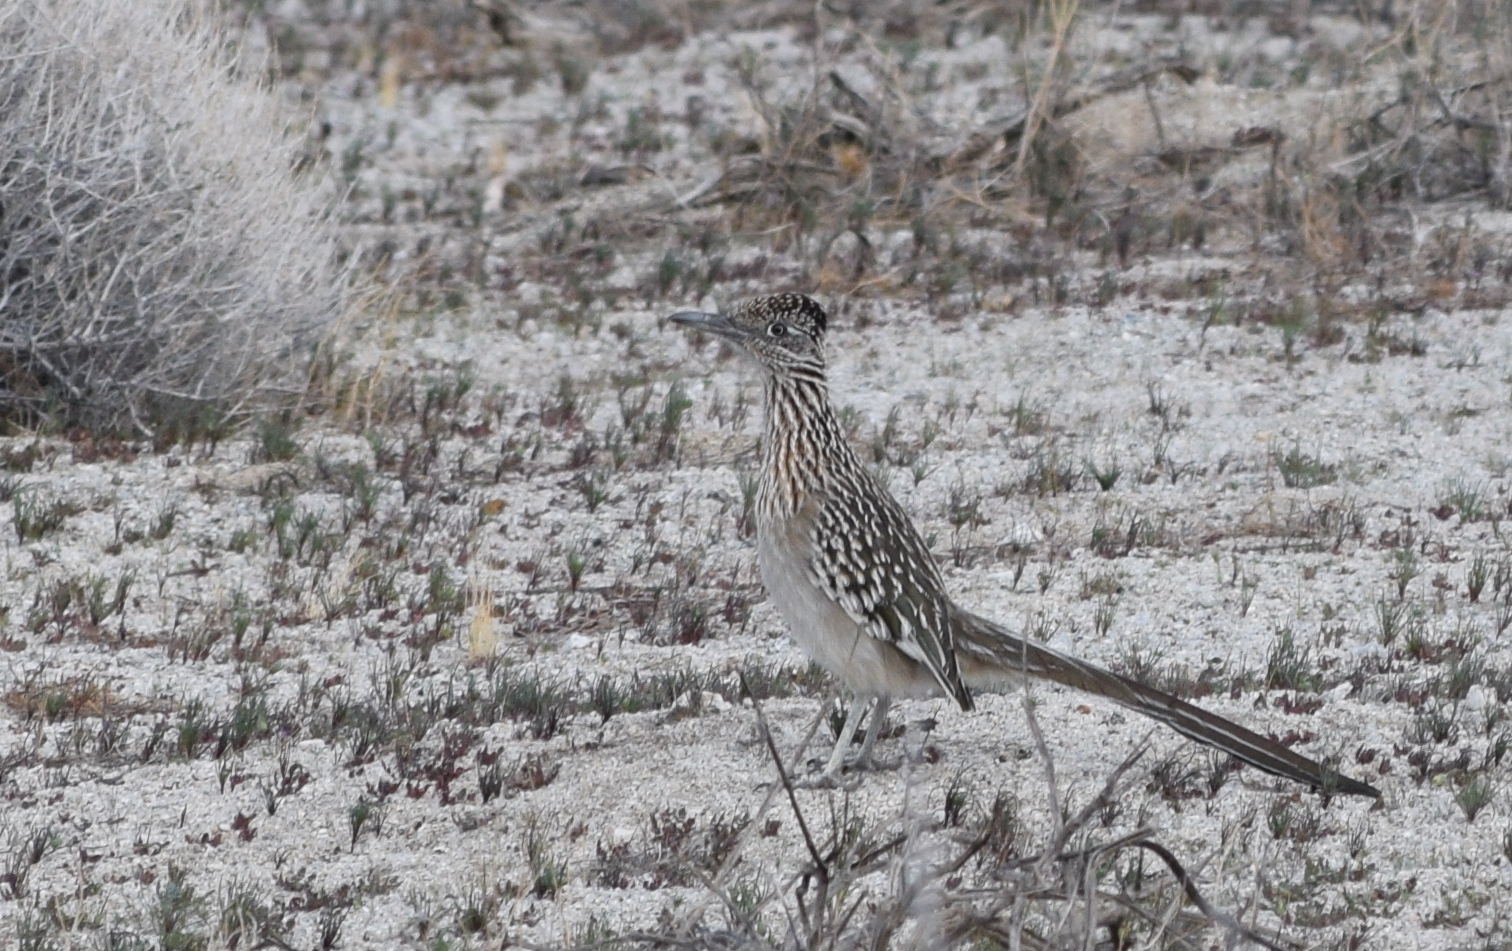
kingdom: Animalia
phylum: Chordata
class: Aves
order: Cuculiformes
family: Cuculidae
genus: Geococcyx
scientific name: Geococcyx californianus
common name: Greater roadrunner
